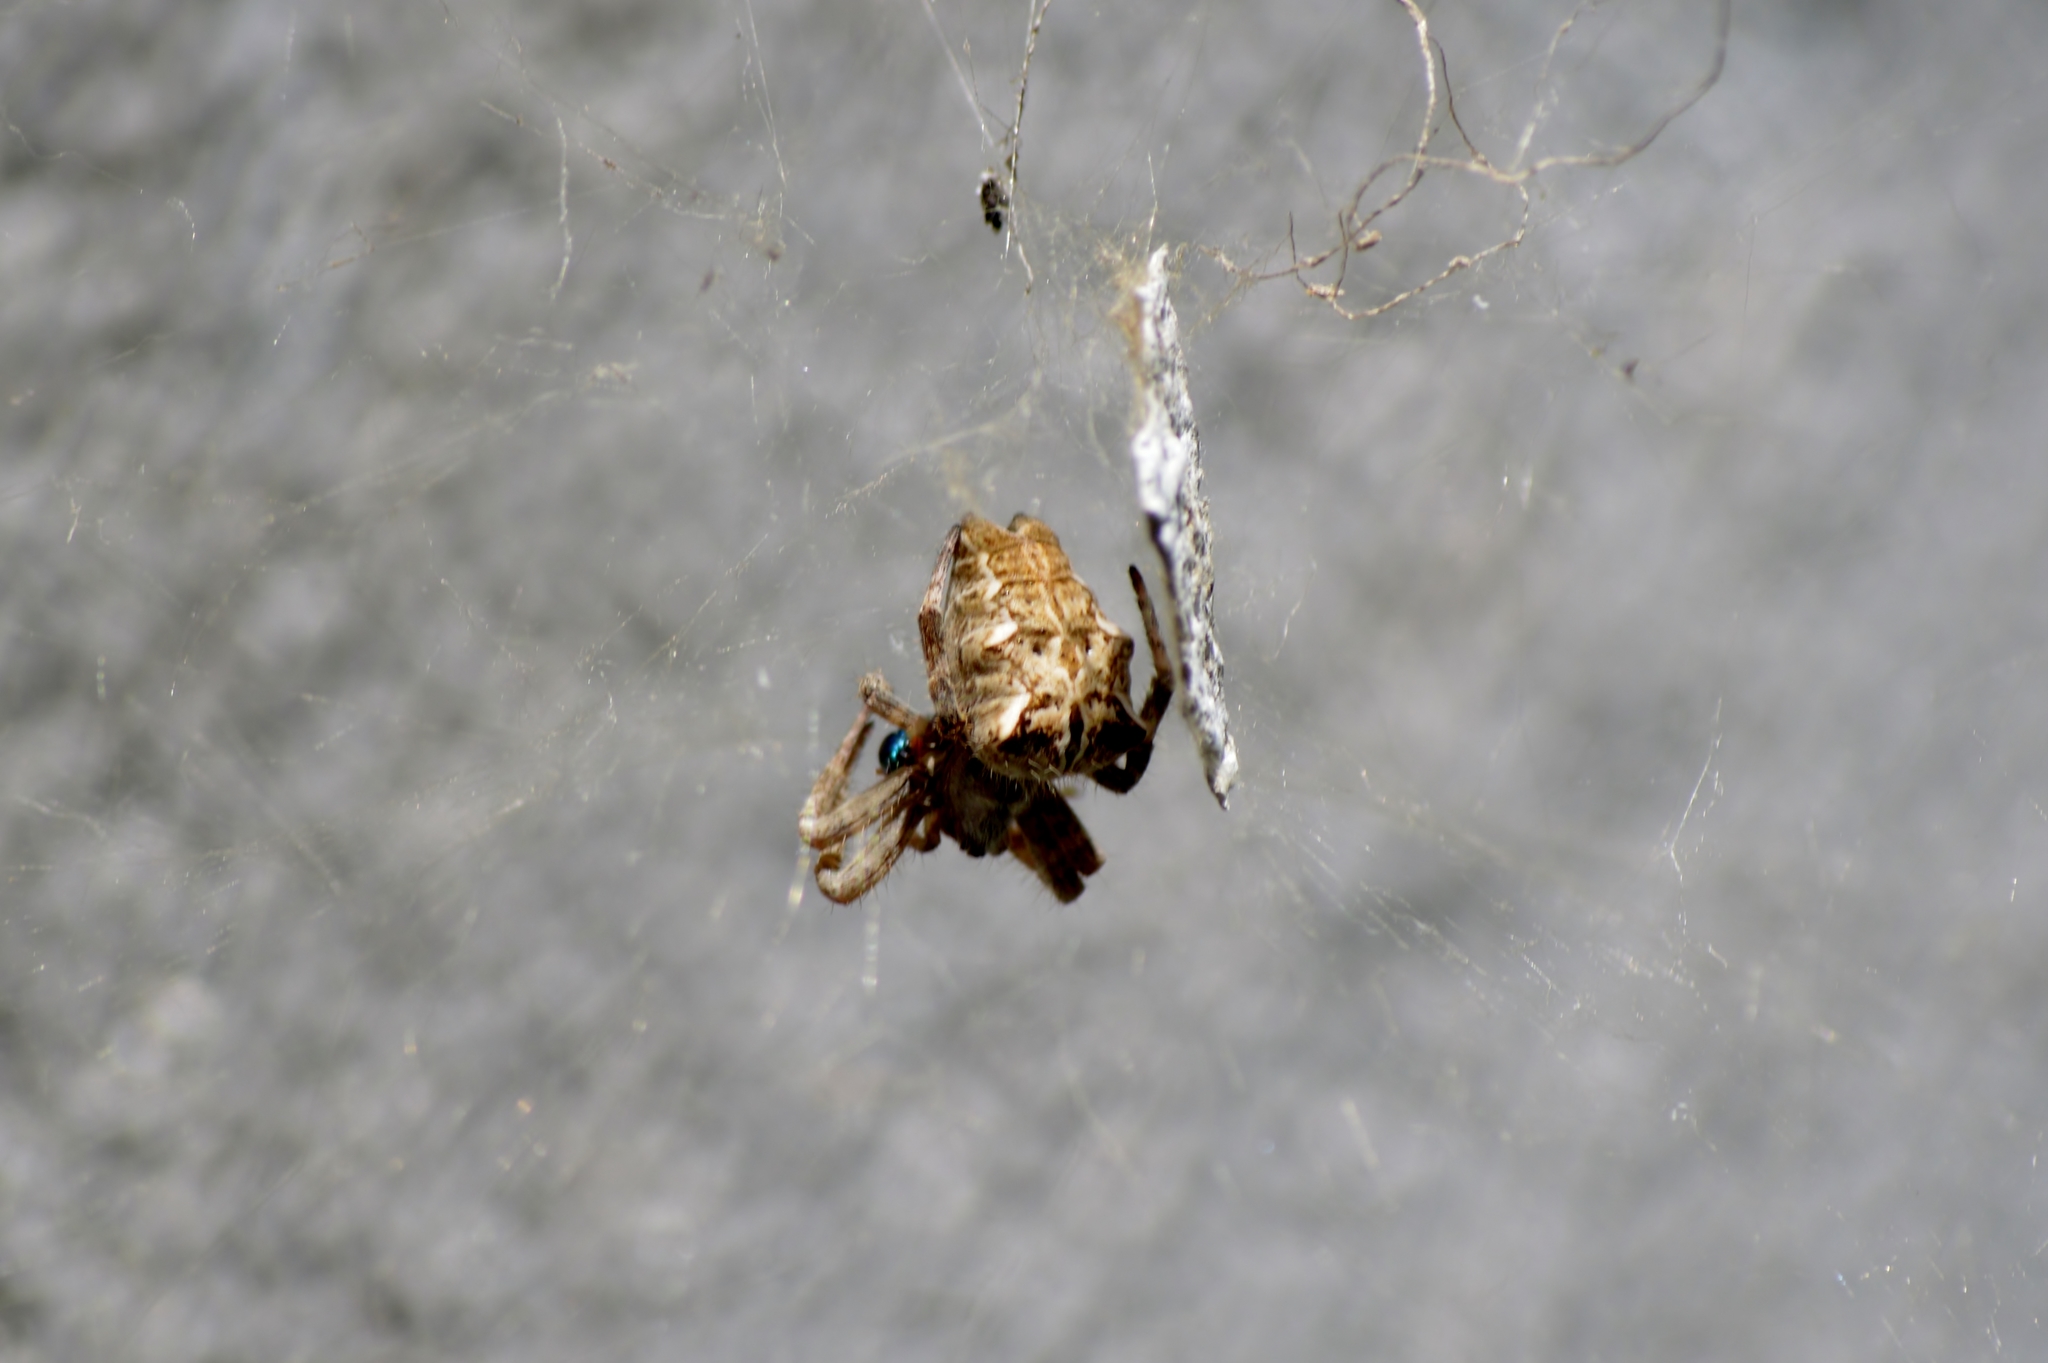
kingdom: Animalia
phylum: Arthropoda
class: Arachnida
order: Araneae
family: Araneidae
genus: Cyrtophora
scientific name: Cyrtophora citricola
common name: Orb weavers
